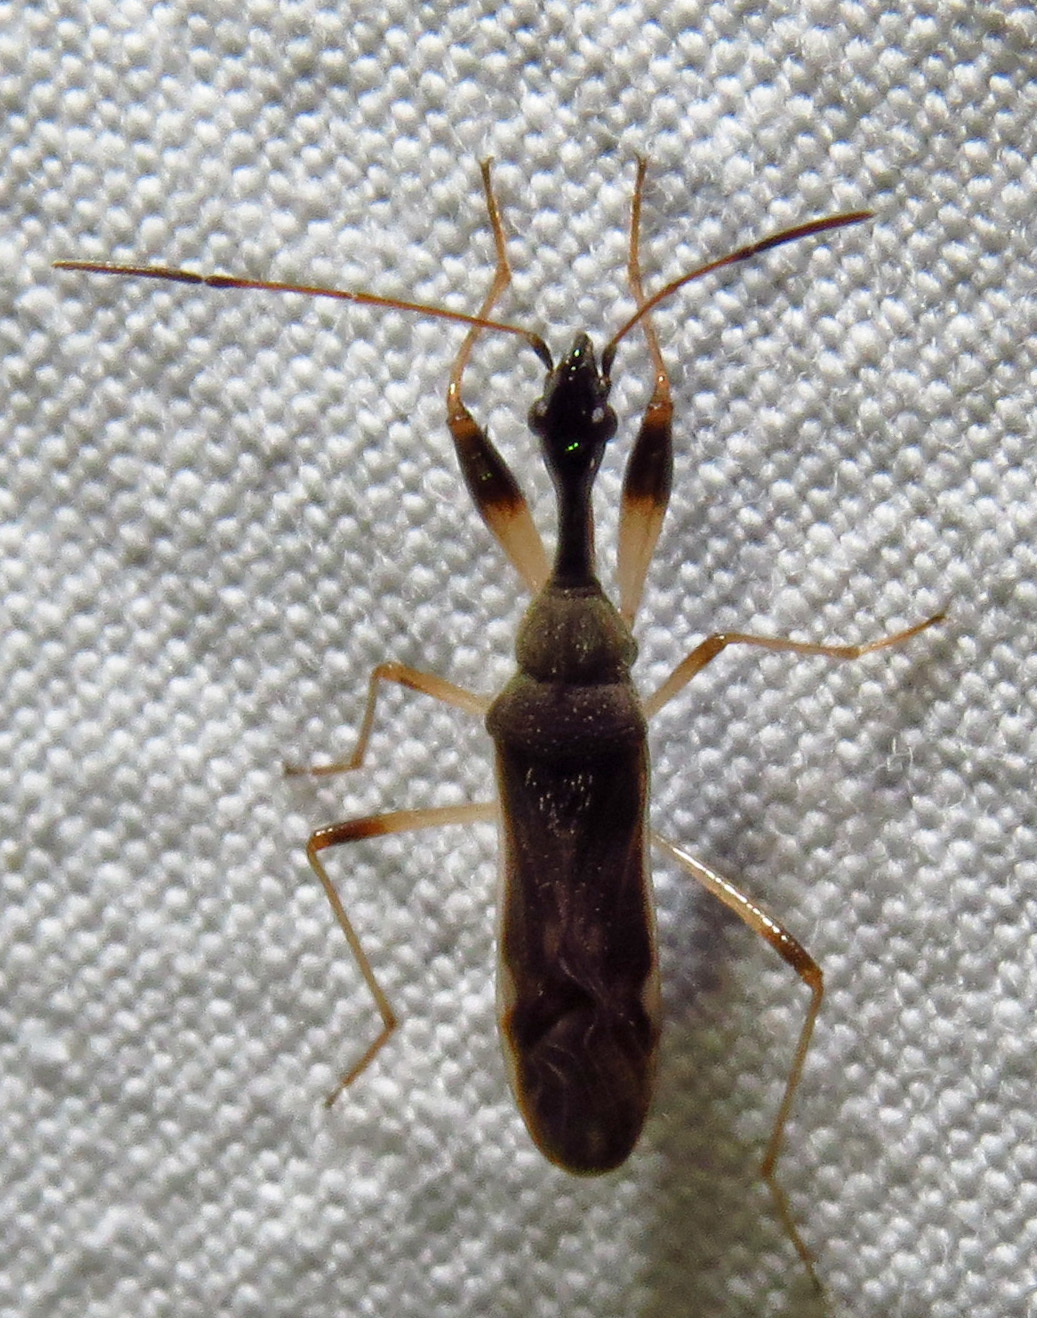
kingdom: Animalia
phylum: Arthropoda
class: Insecta
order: Hemiptera
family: Rhyparochromidae
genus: Myodocha
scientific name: Myodocha serripes
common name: Long-necked seed bug
